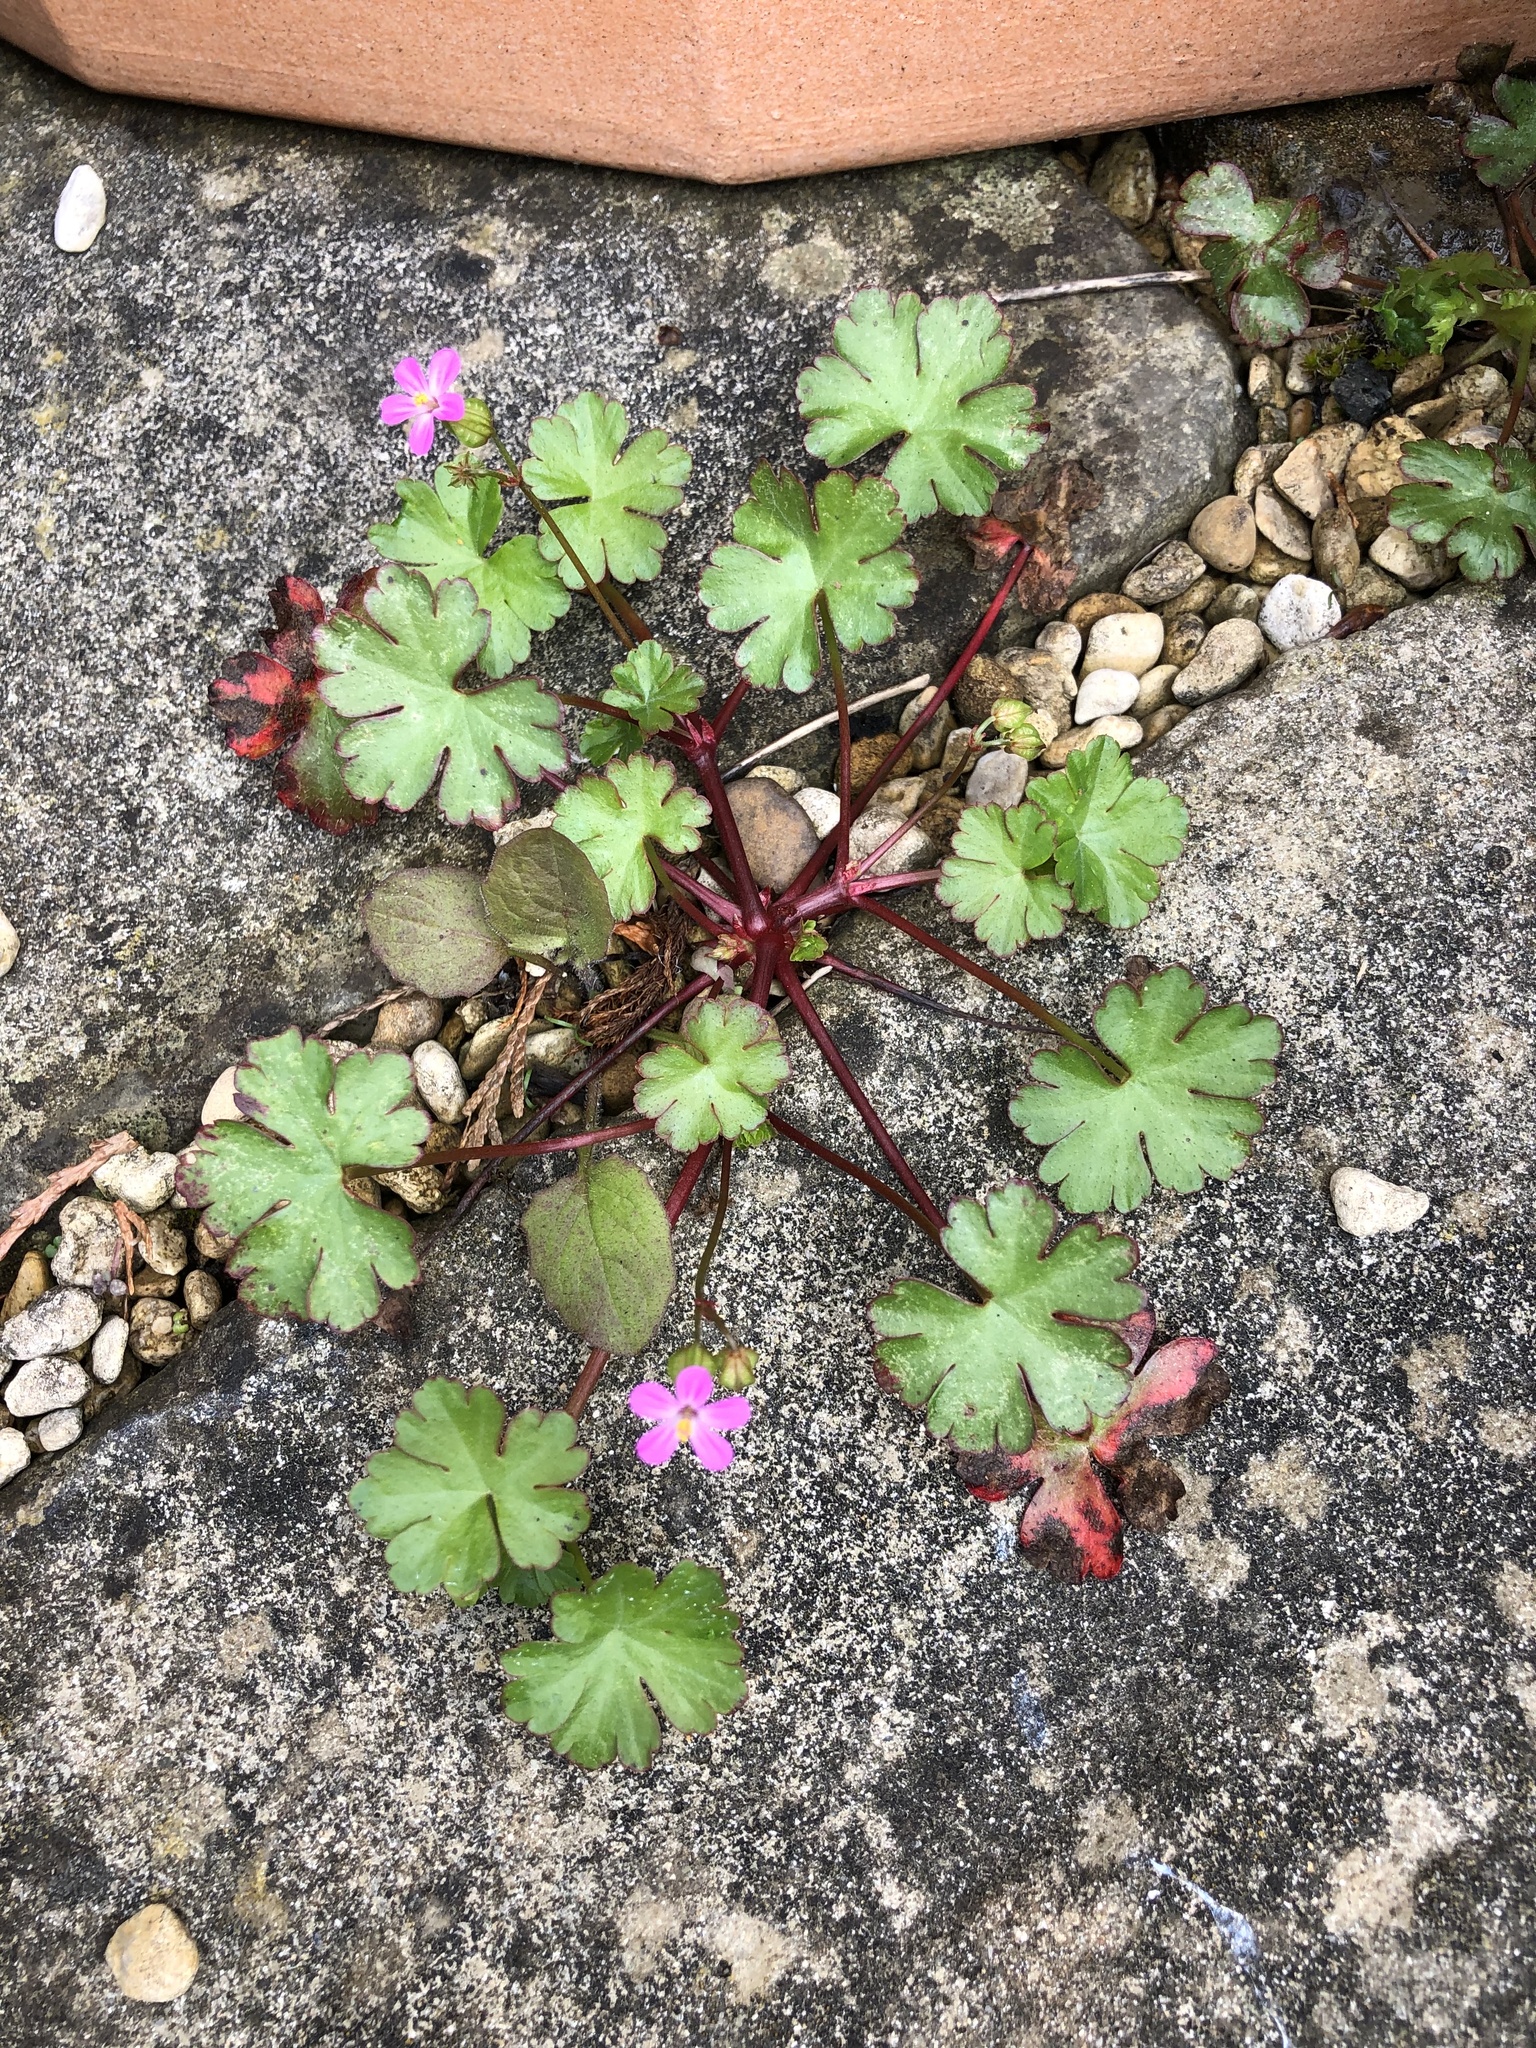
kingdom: Plantae
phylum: Tracheophyta
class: Magnoliopsida
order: Geraniales
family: Geraniaceae
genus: Geranium
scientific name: Geranium lucidum
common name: Shining crane's-bill
